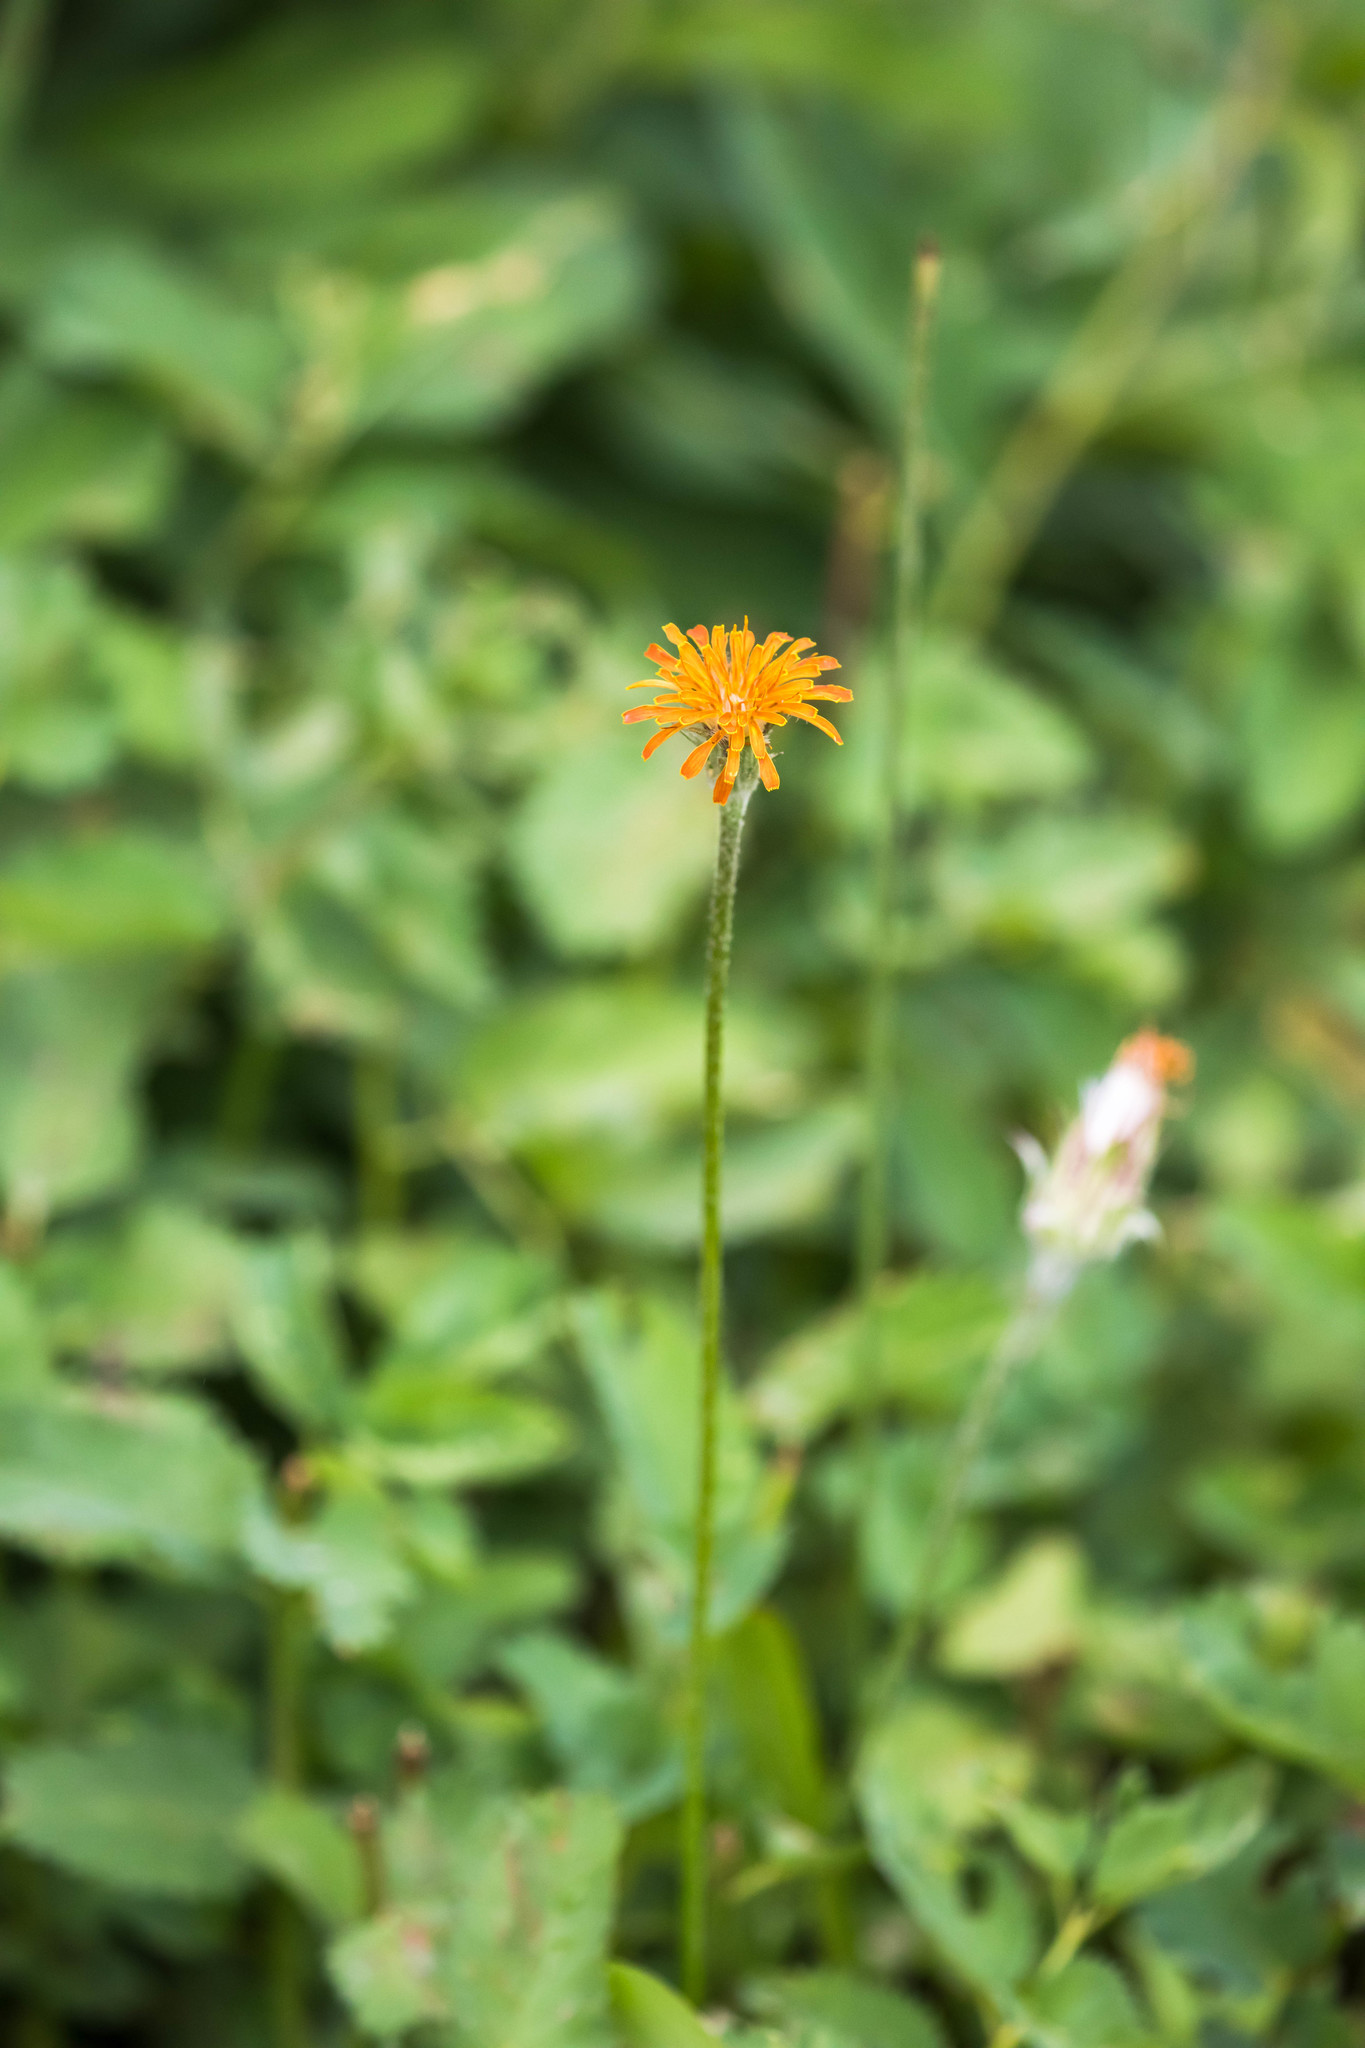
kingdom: Plantae
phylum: Tracheophyta
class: Magnoliopsida
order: Asterales
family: Asteraceae
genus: Agoseris
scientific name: Agoseris aurantiaca
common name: Mountain agoseris
